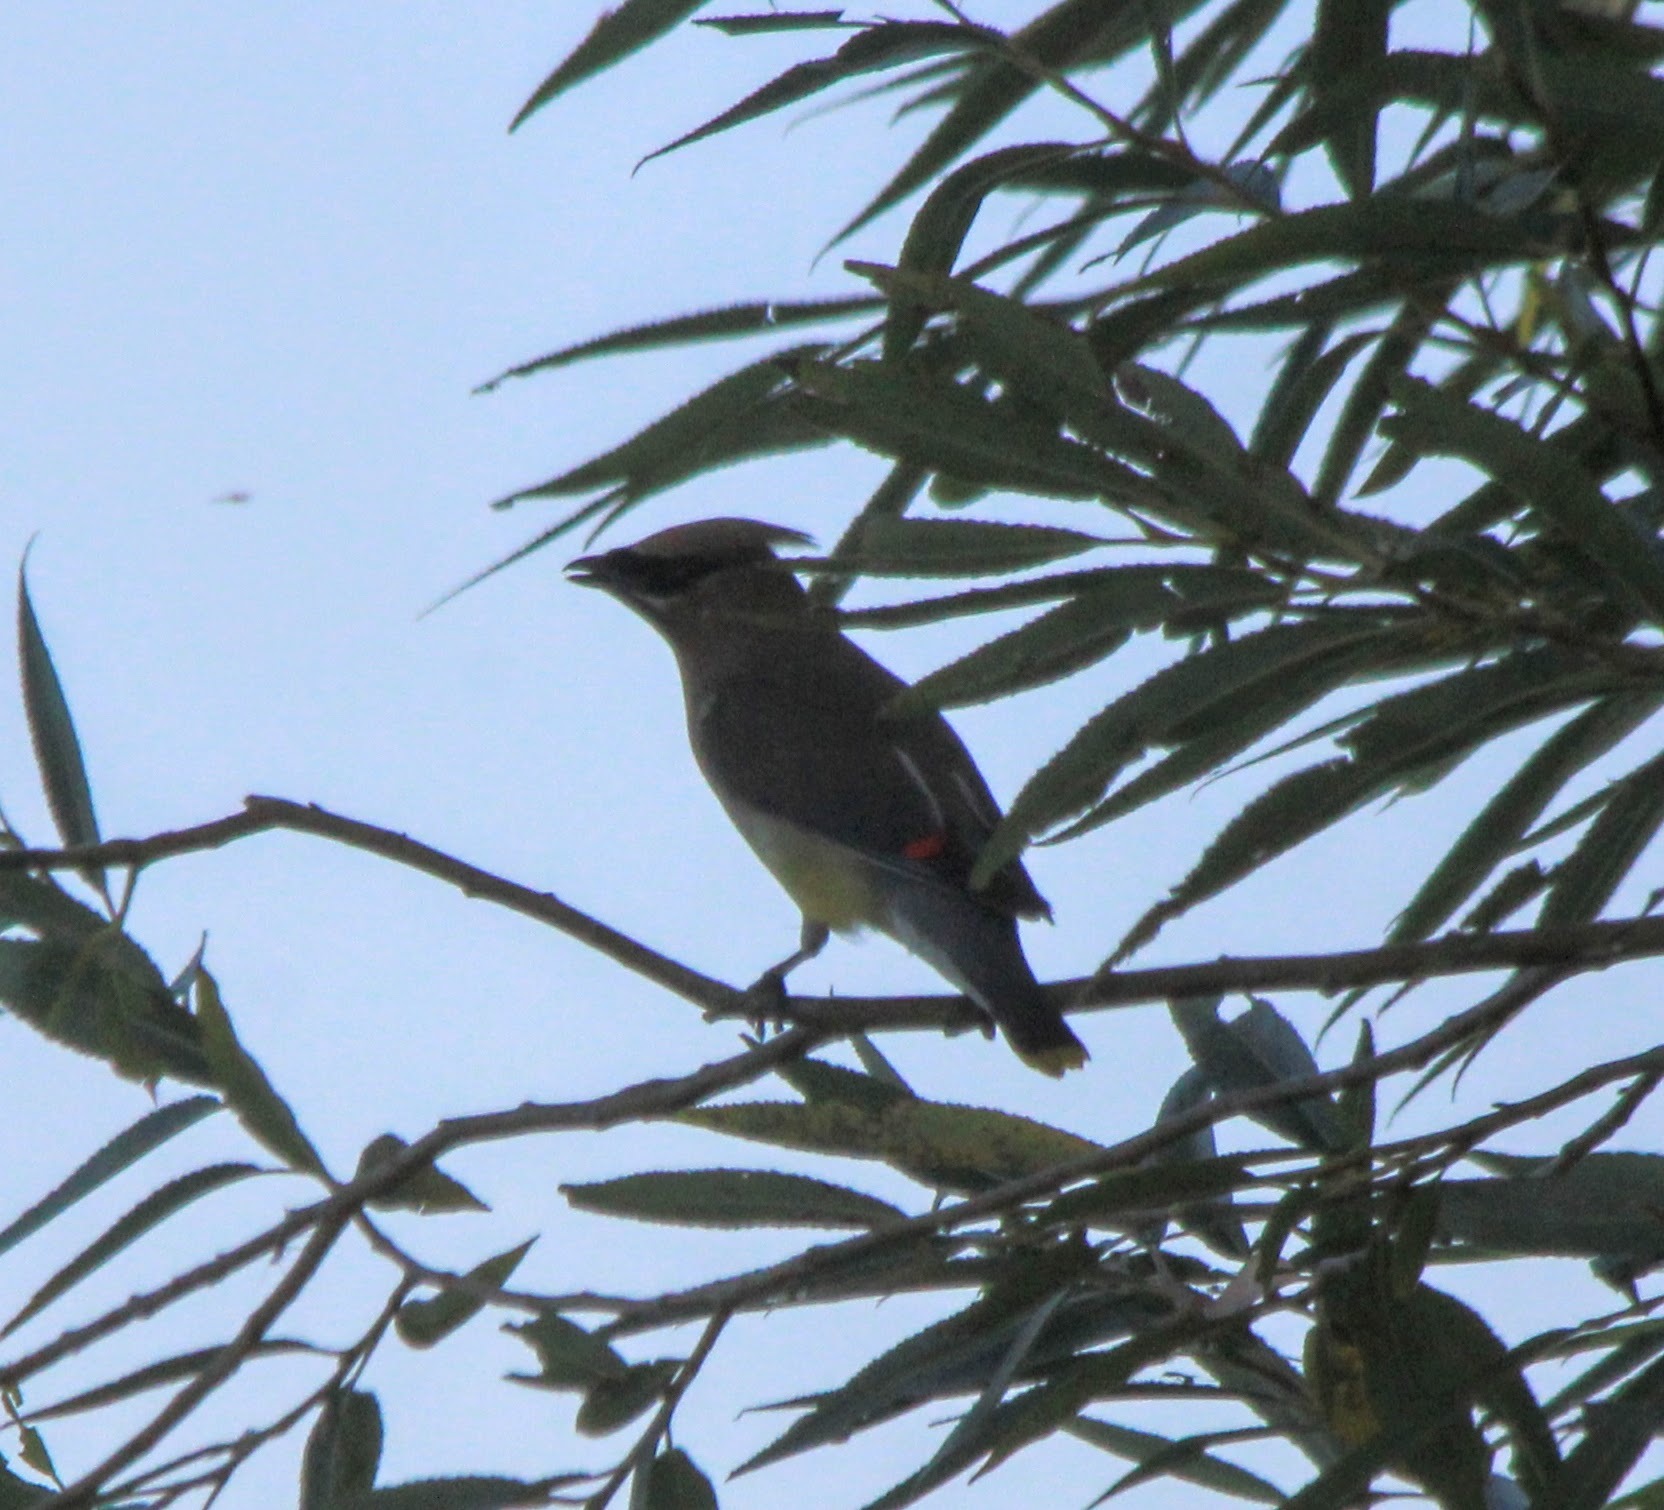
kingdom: Animalia
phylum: Chordata
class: Aves
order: Passeriformes
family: Bombycillidae
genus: Bombycilla
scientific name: Bombycilla cedrorum
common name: Cedar waxwing
